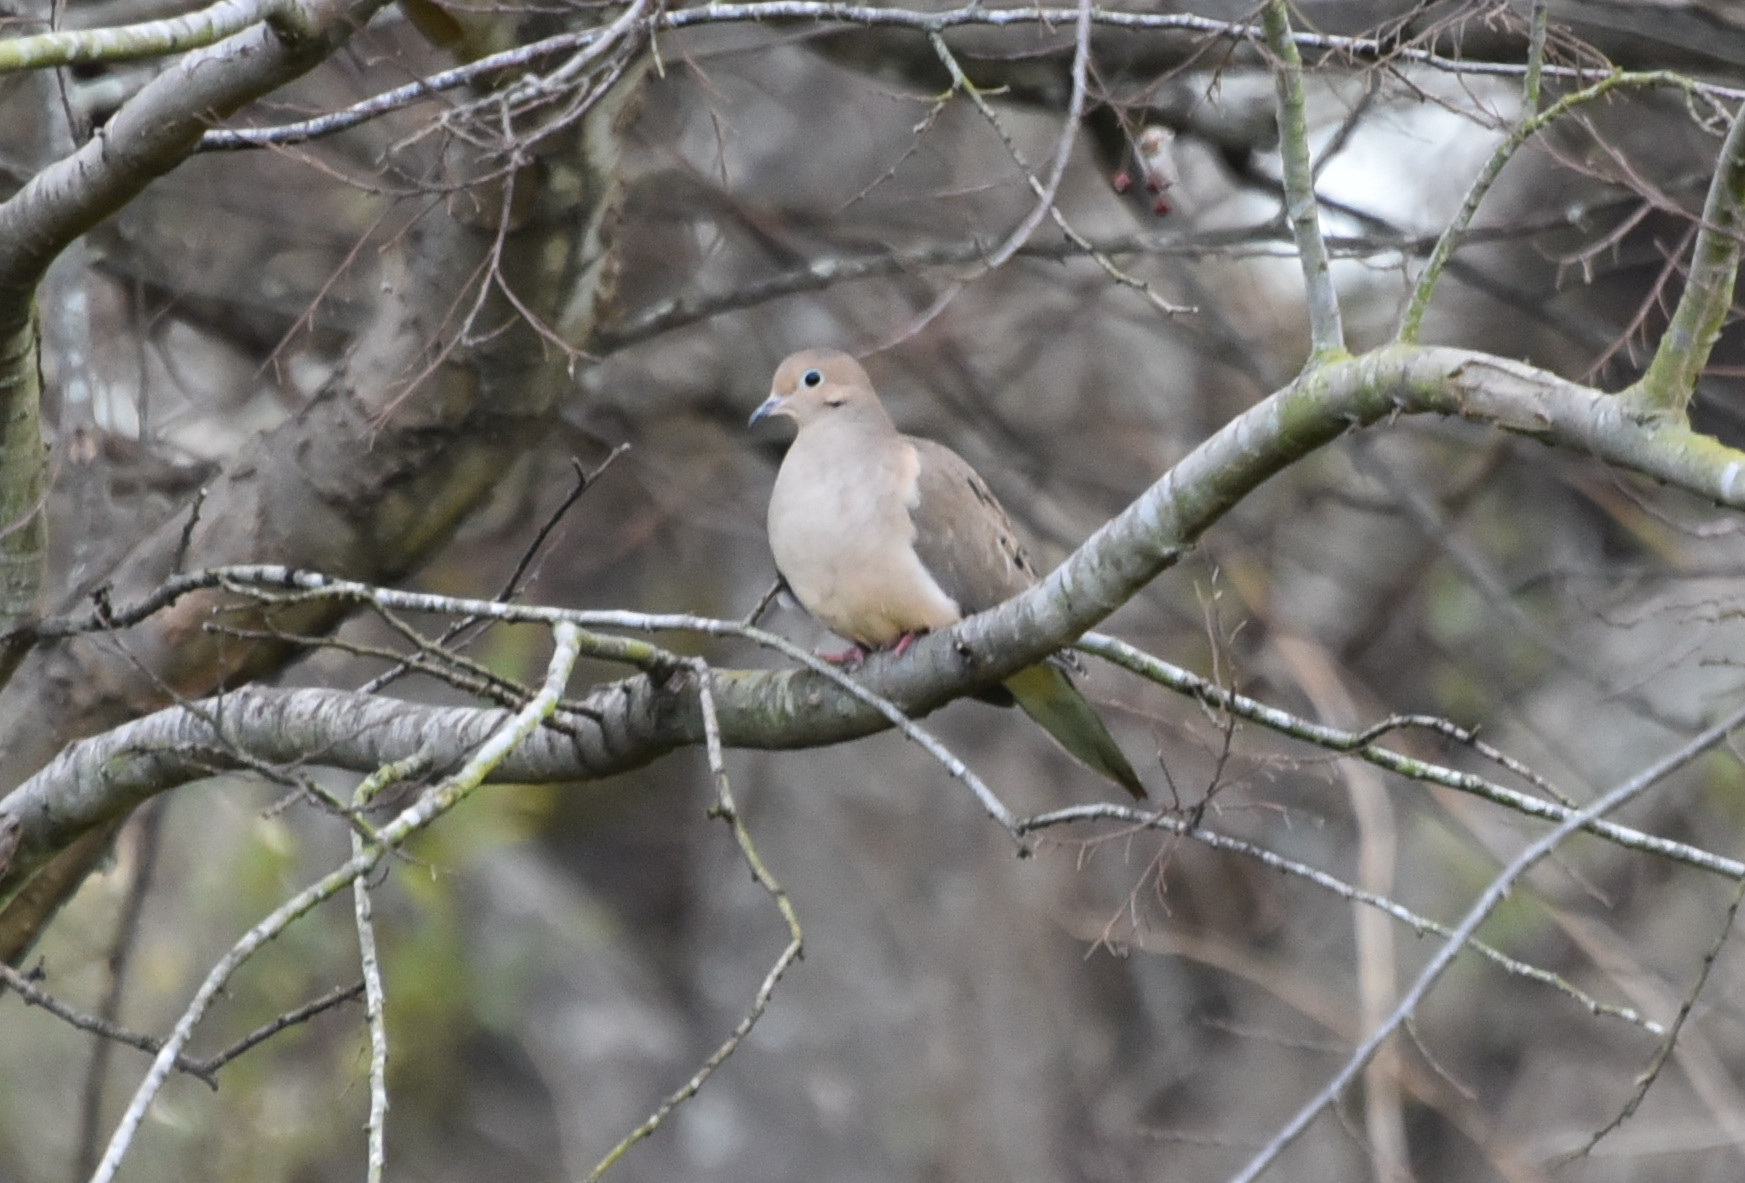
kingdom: Animalia
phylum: Chordata
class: Aves
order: Columbiformes
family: Columbidae
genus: Zenaida
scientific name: Zenaida macroura
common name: Mourning dove
